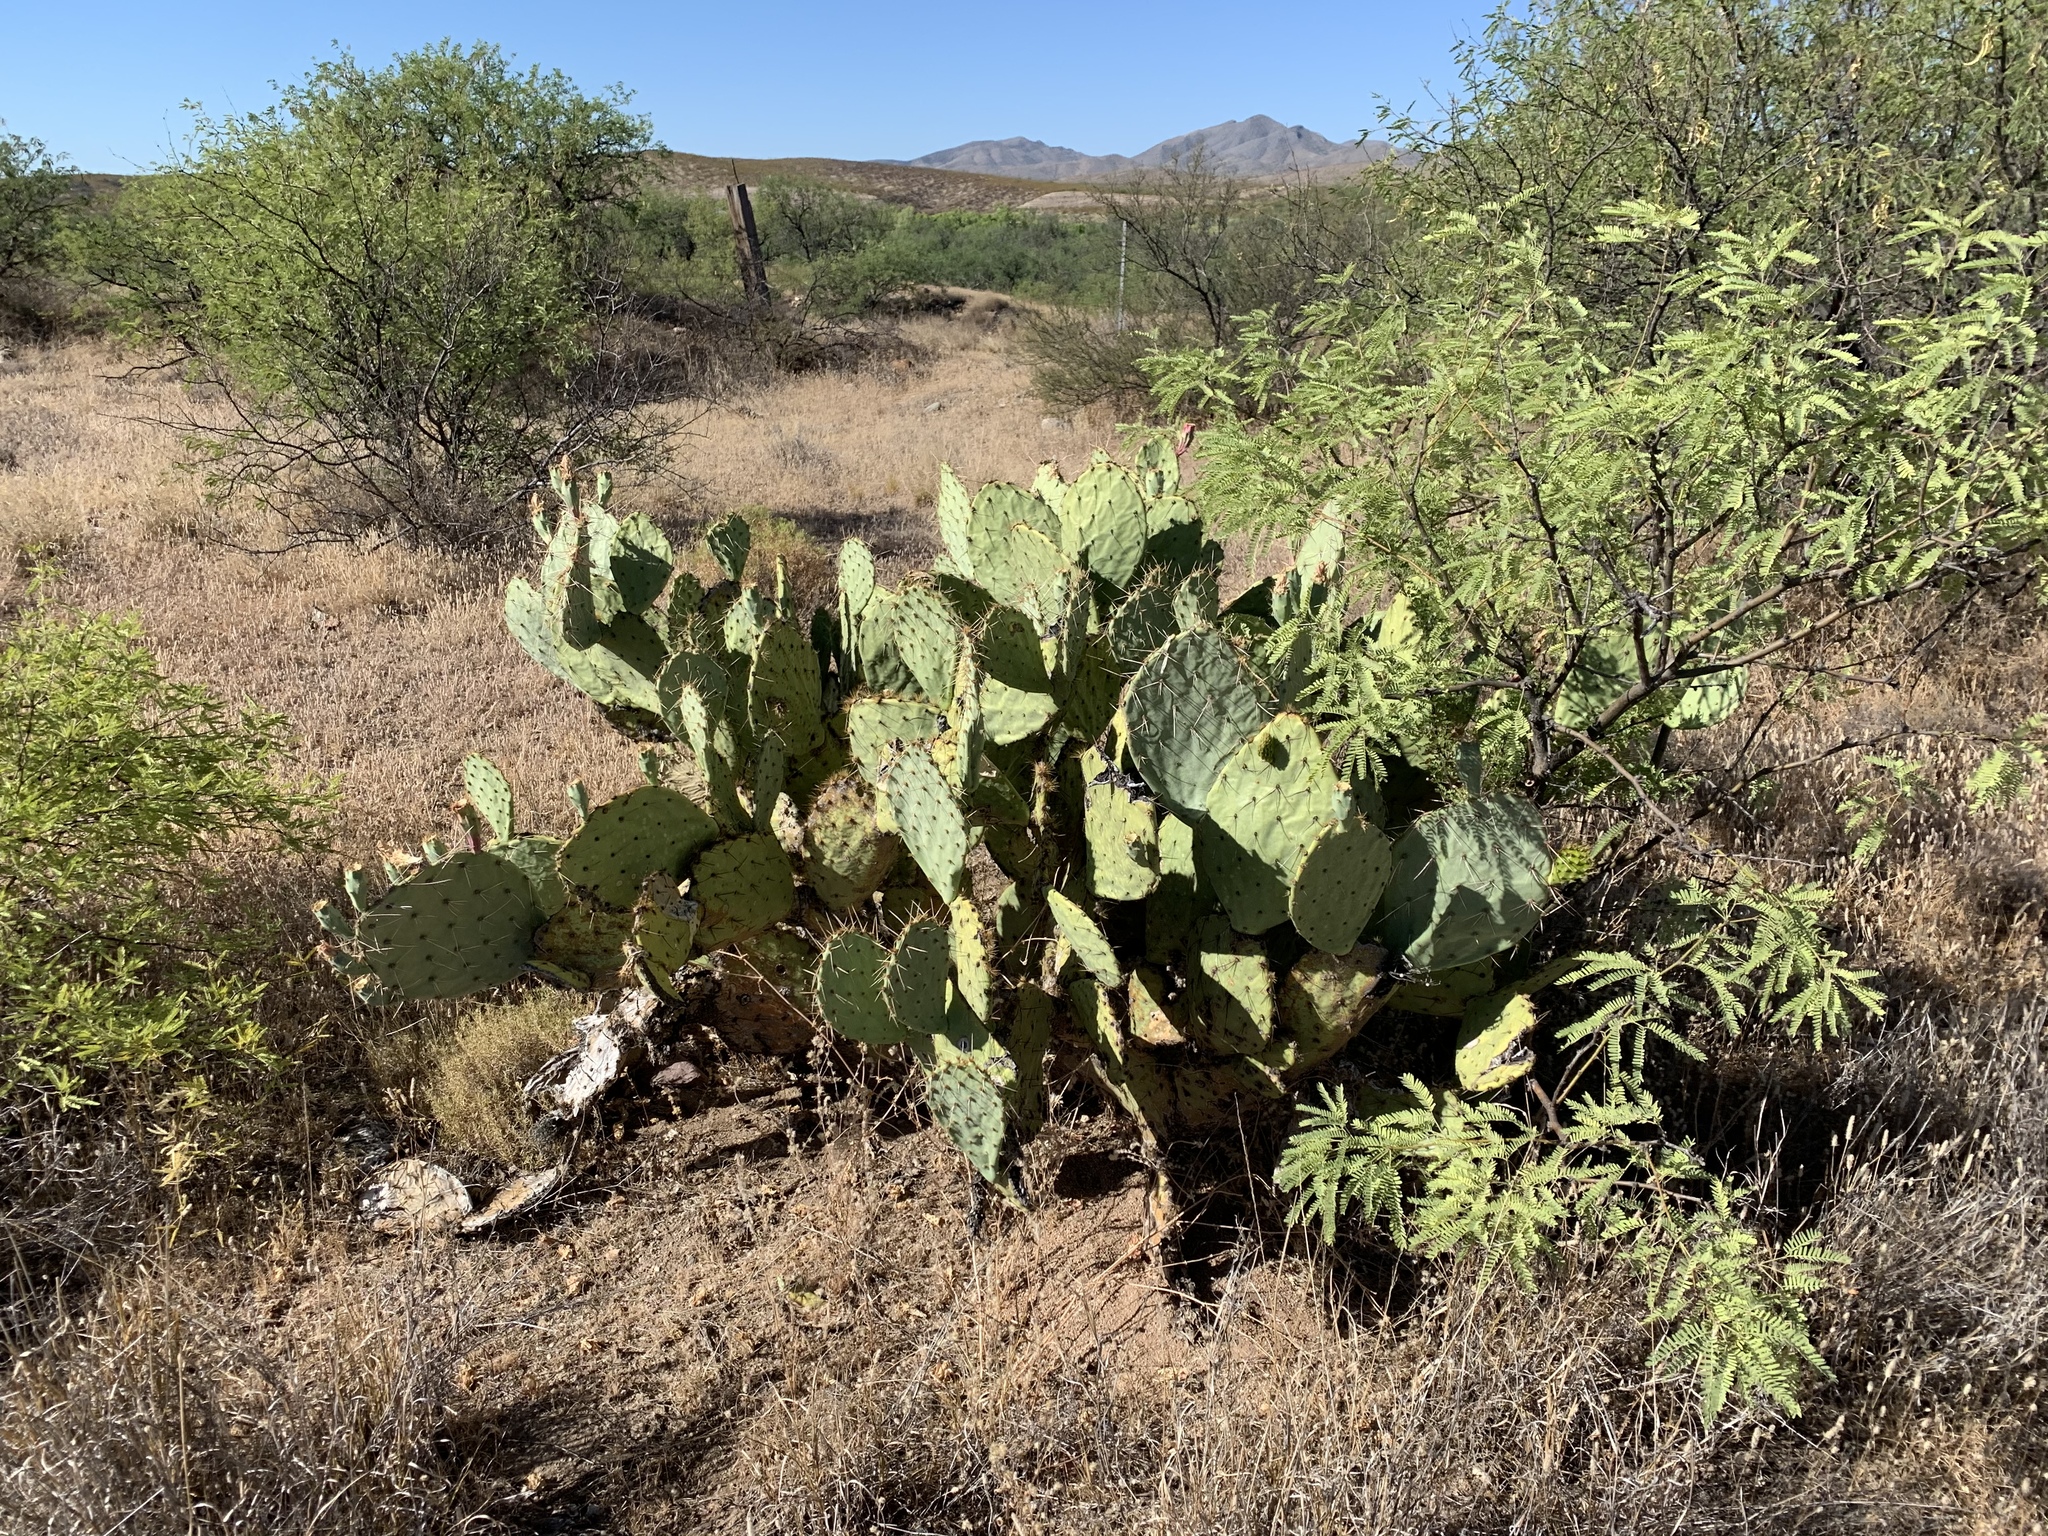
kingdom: Plantae
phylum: Tracheophyta
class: Magnoliopsida
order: Caryophyllales
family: Cactaceae
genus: Opuntia
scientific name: Opuntia engelmannii
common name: Cactus-apple
